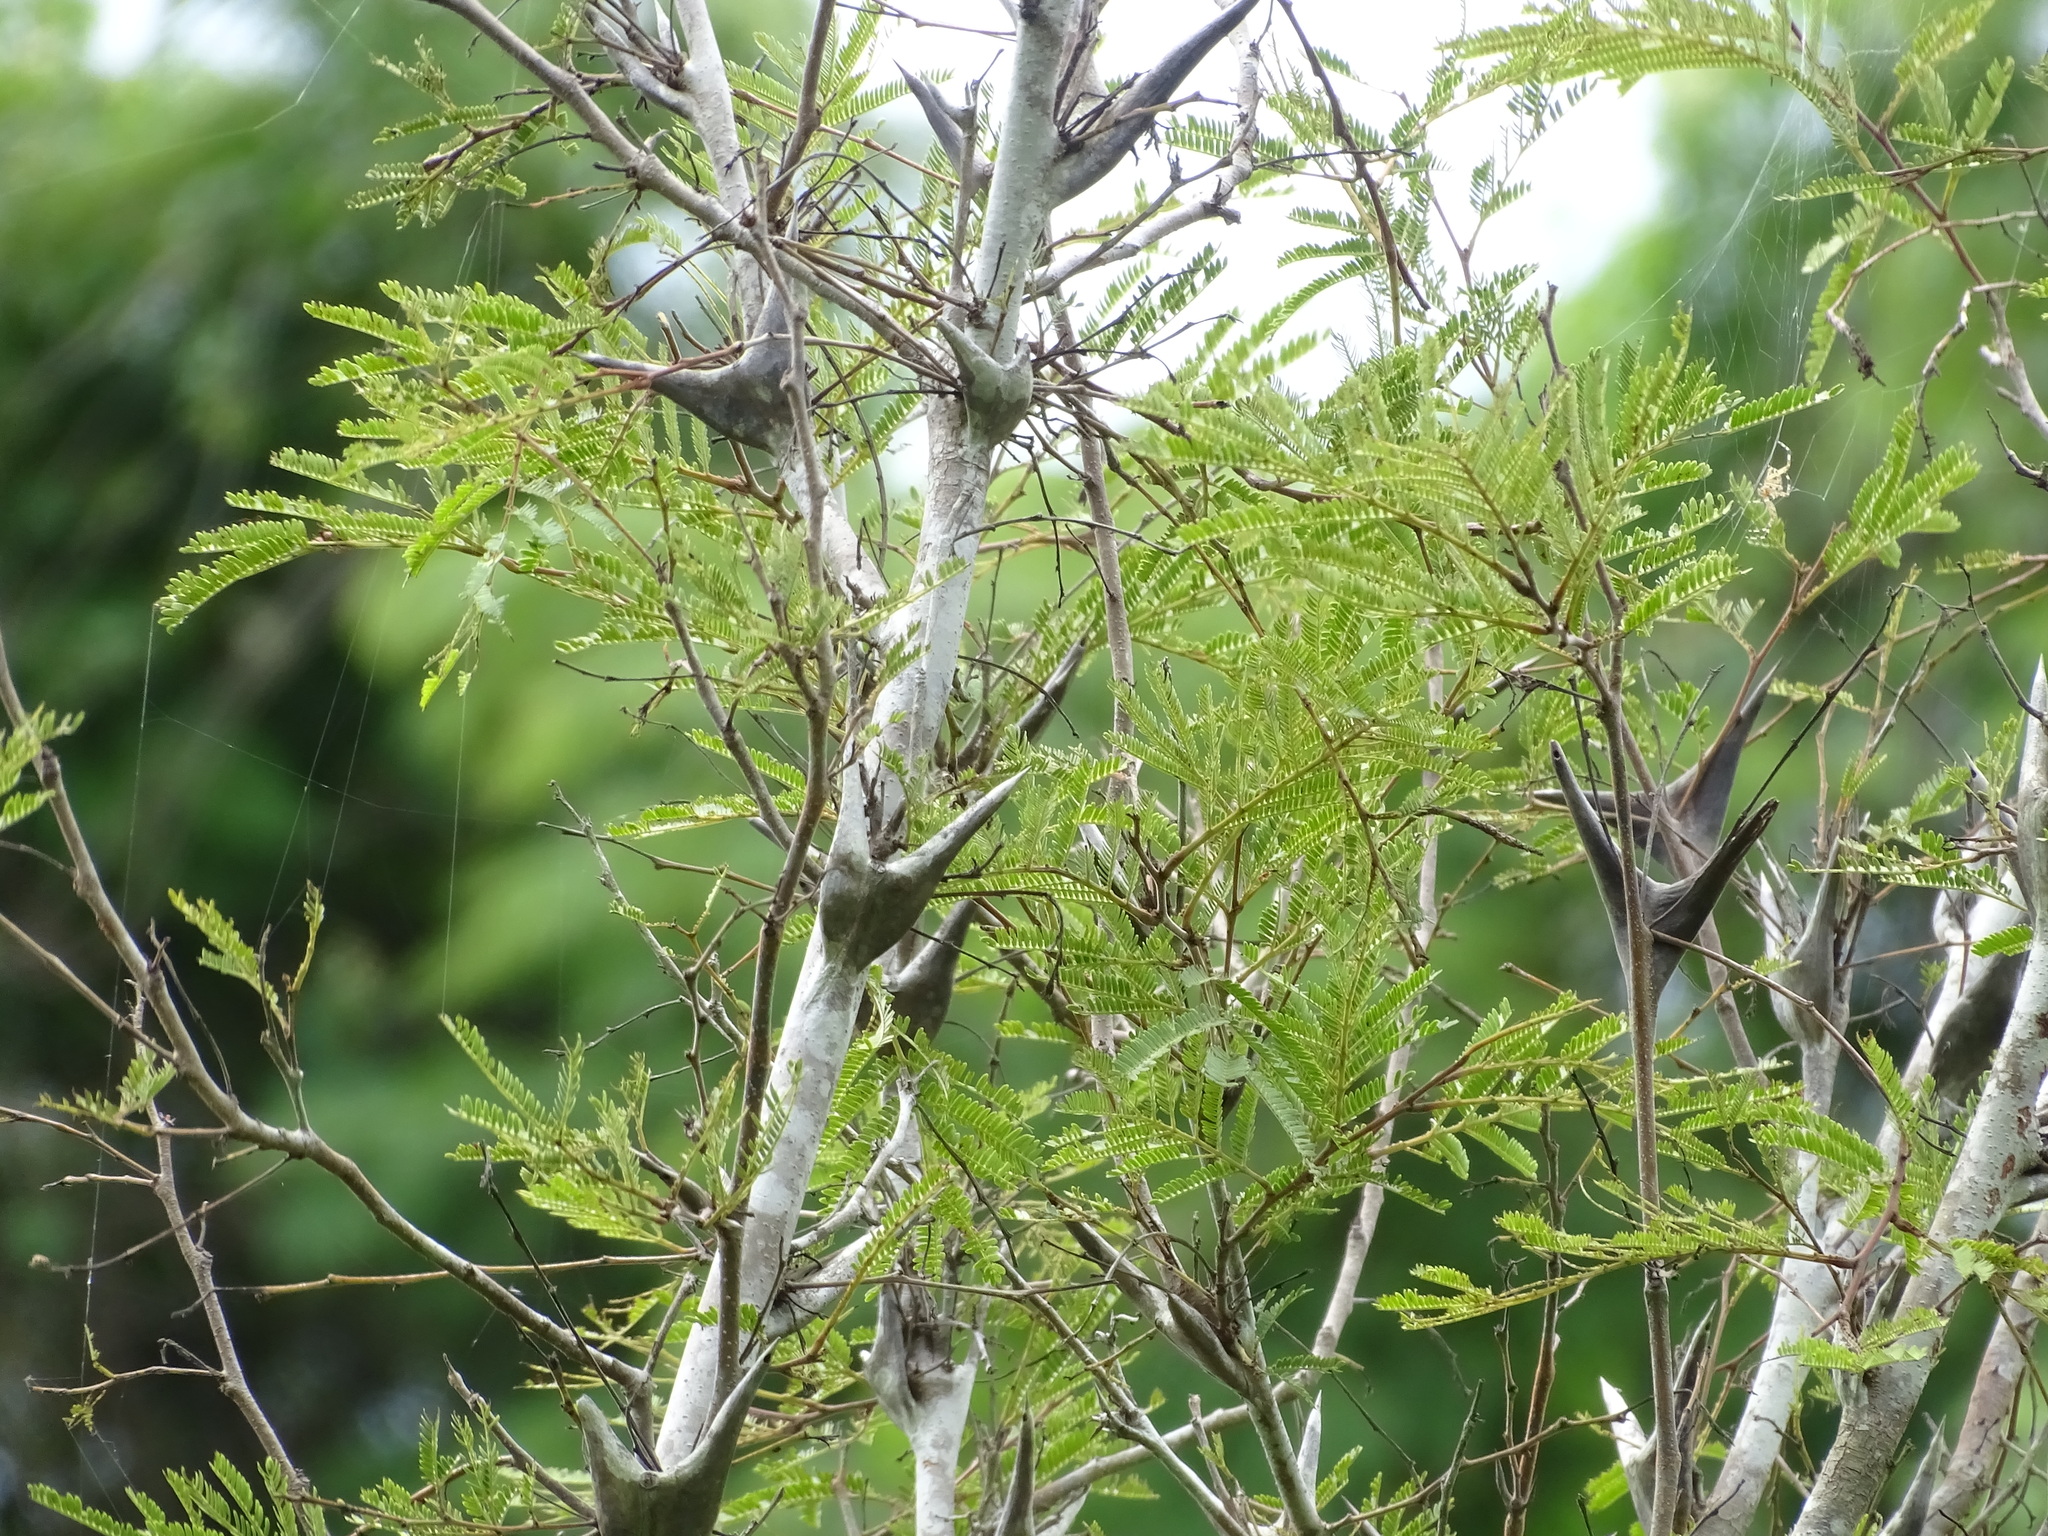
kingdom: Plantae
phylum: Tracheophyta
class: Magnoliopsida
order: Fabales
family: Fabaceae
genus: Vachellia
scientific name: Vachellia hindsii
